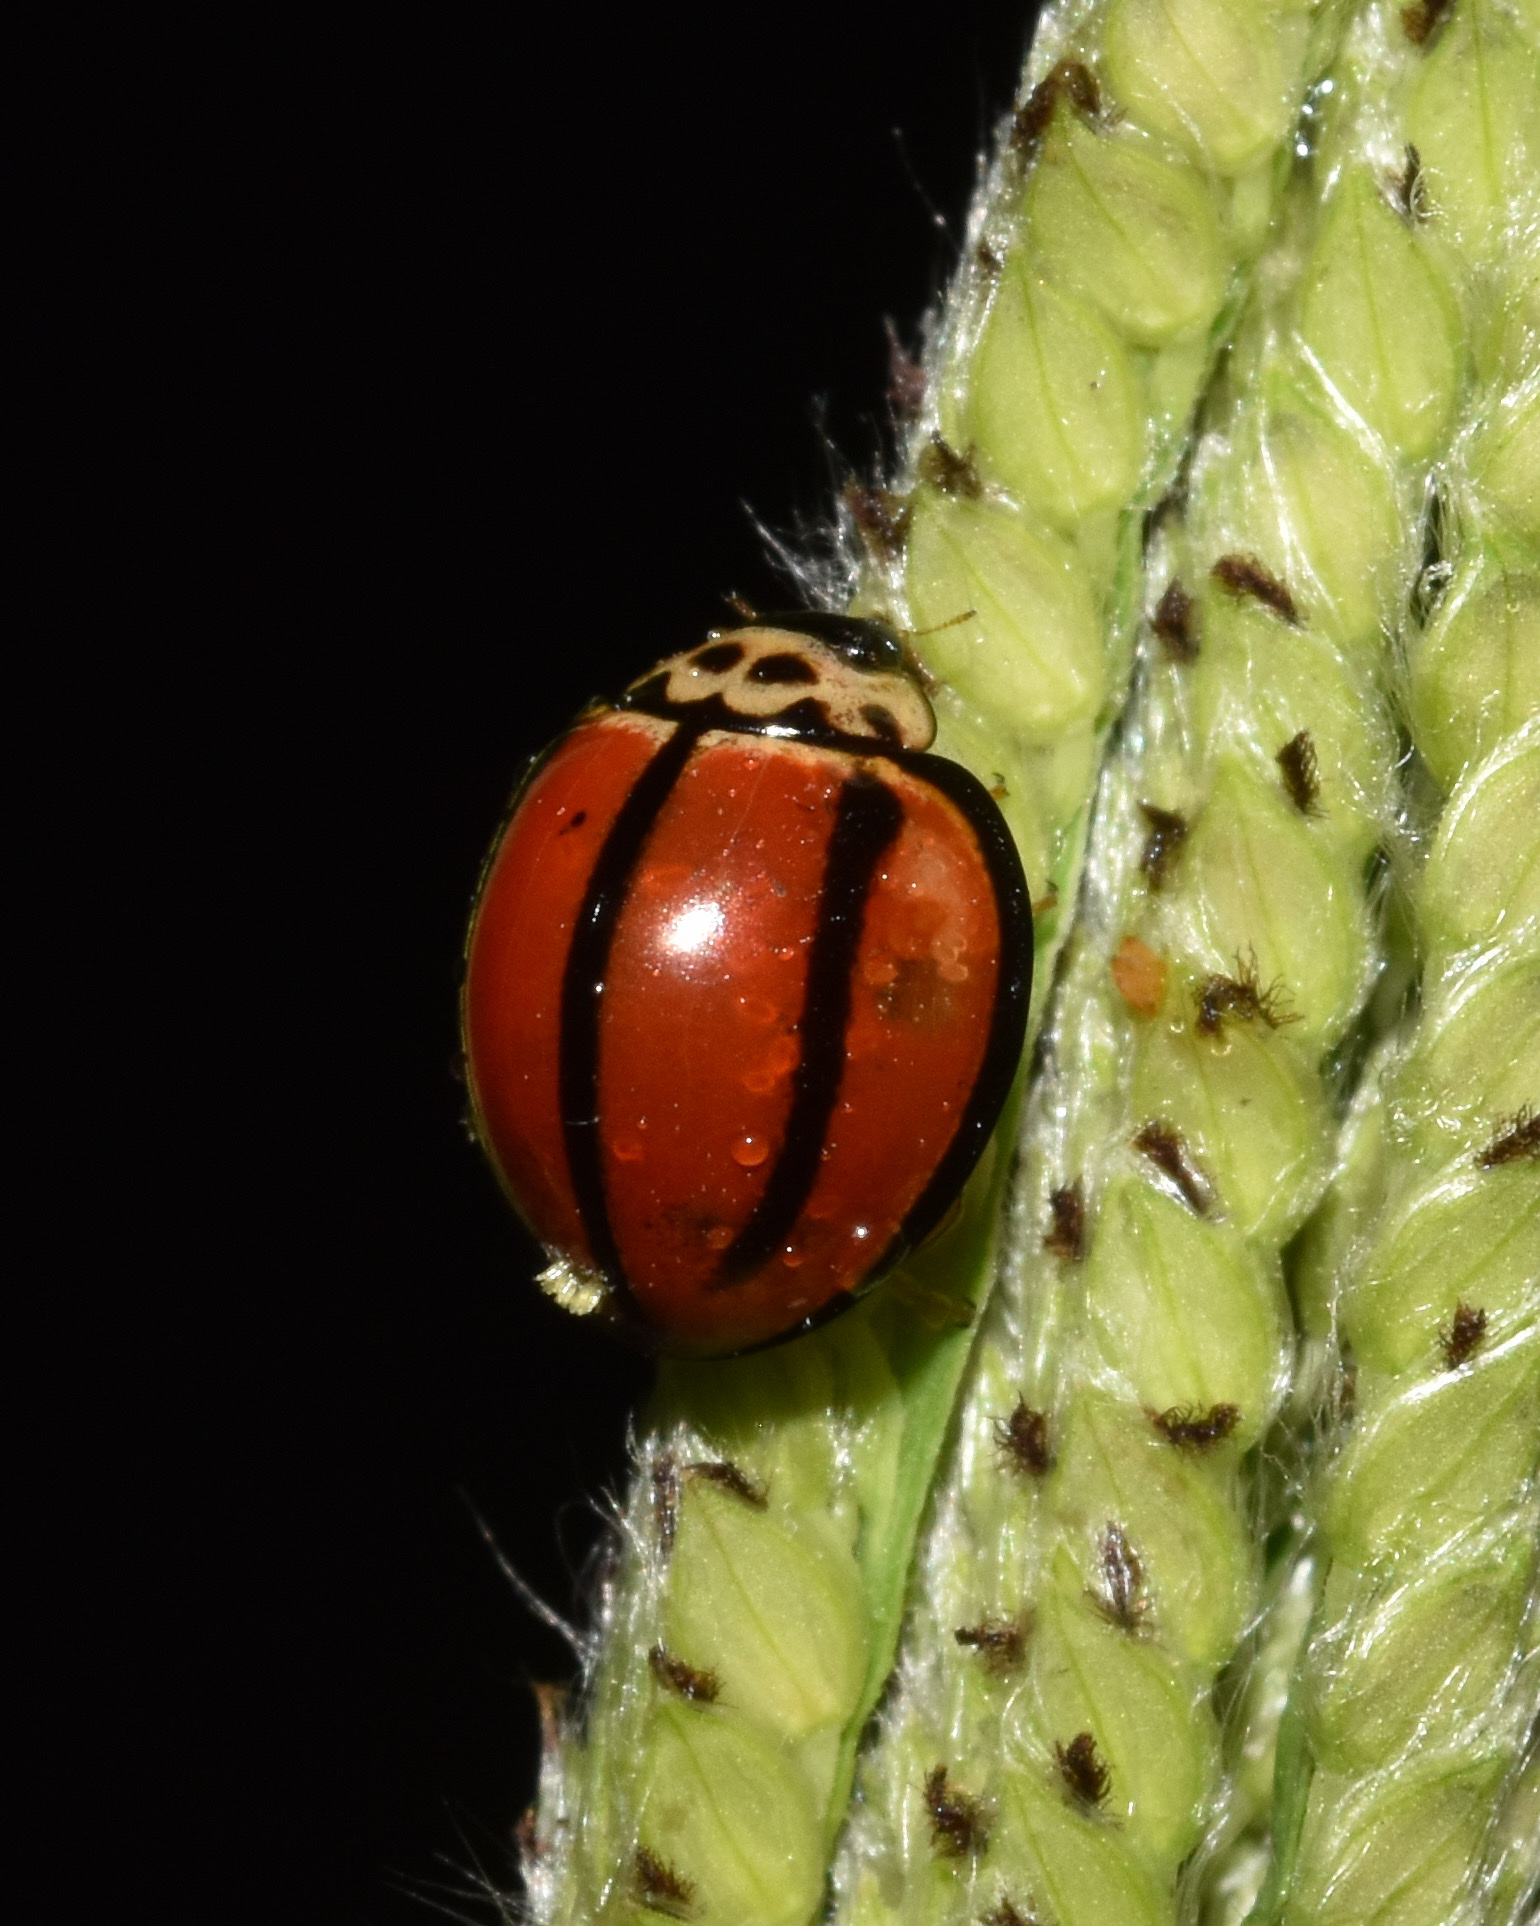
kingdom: Animalia
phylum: Arthropoda
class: Insecta
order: Coleoptera
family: Coccinellidae
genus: Declivitata
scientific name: Declivitata
